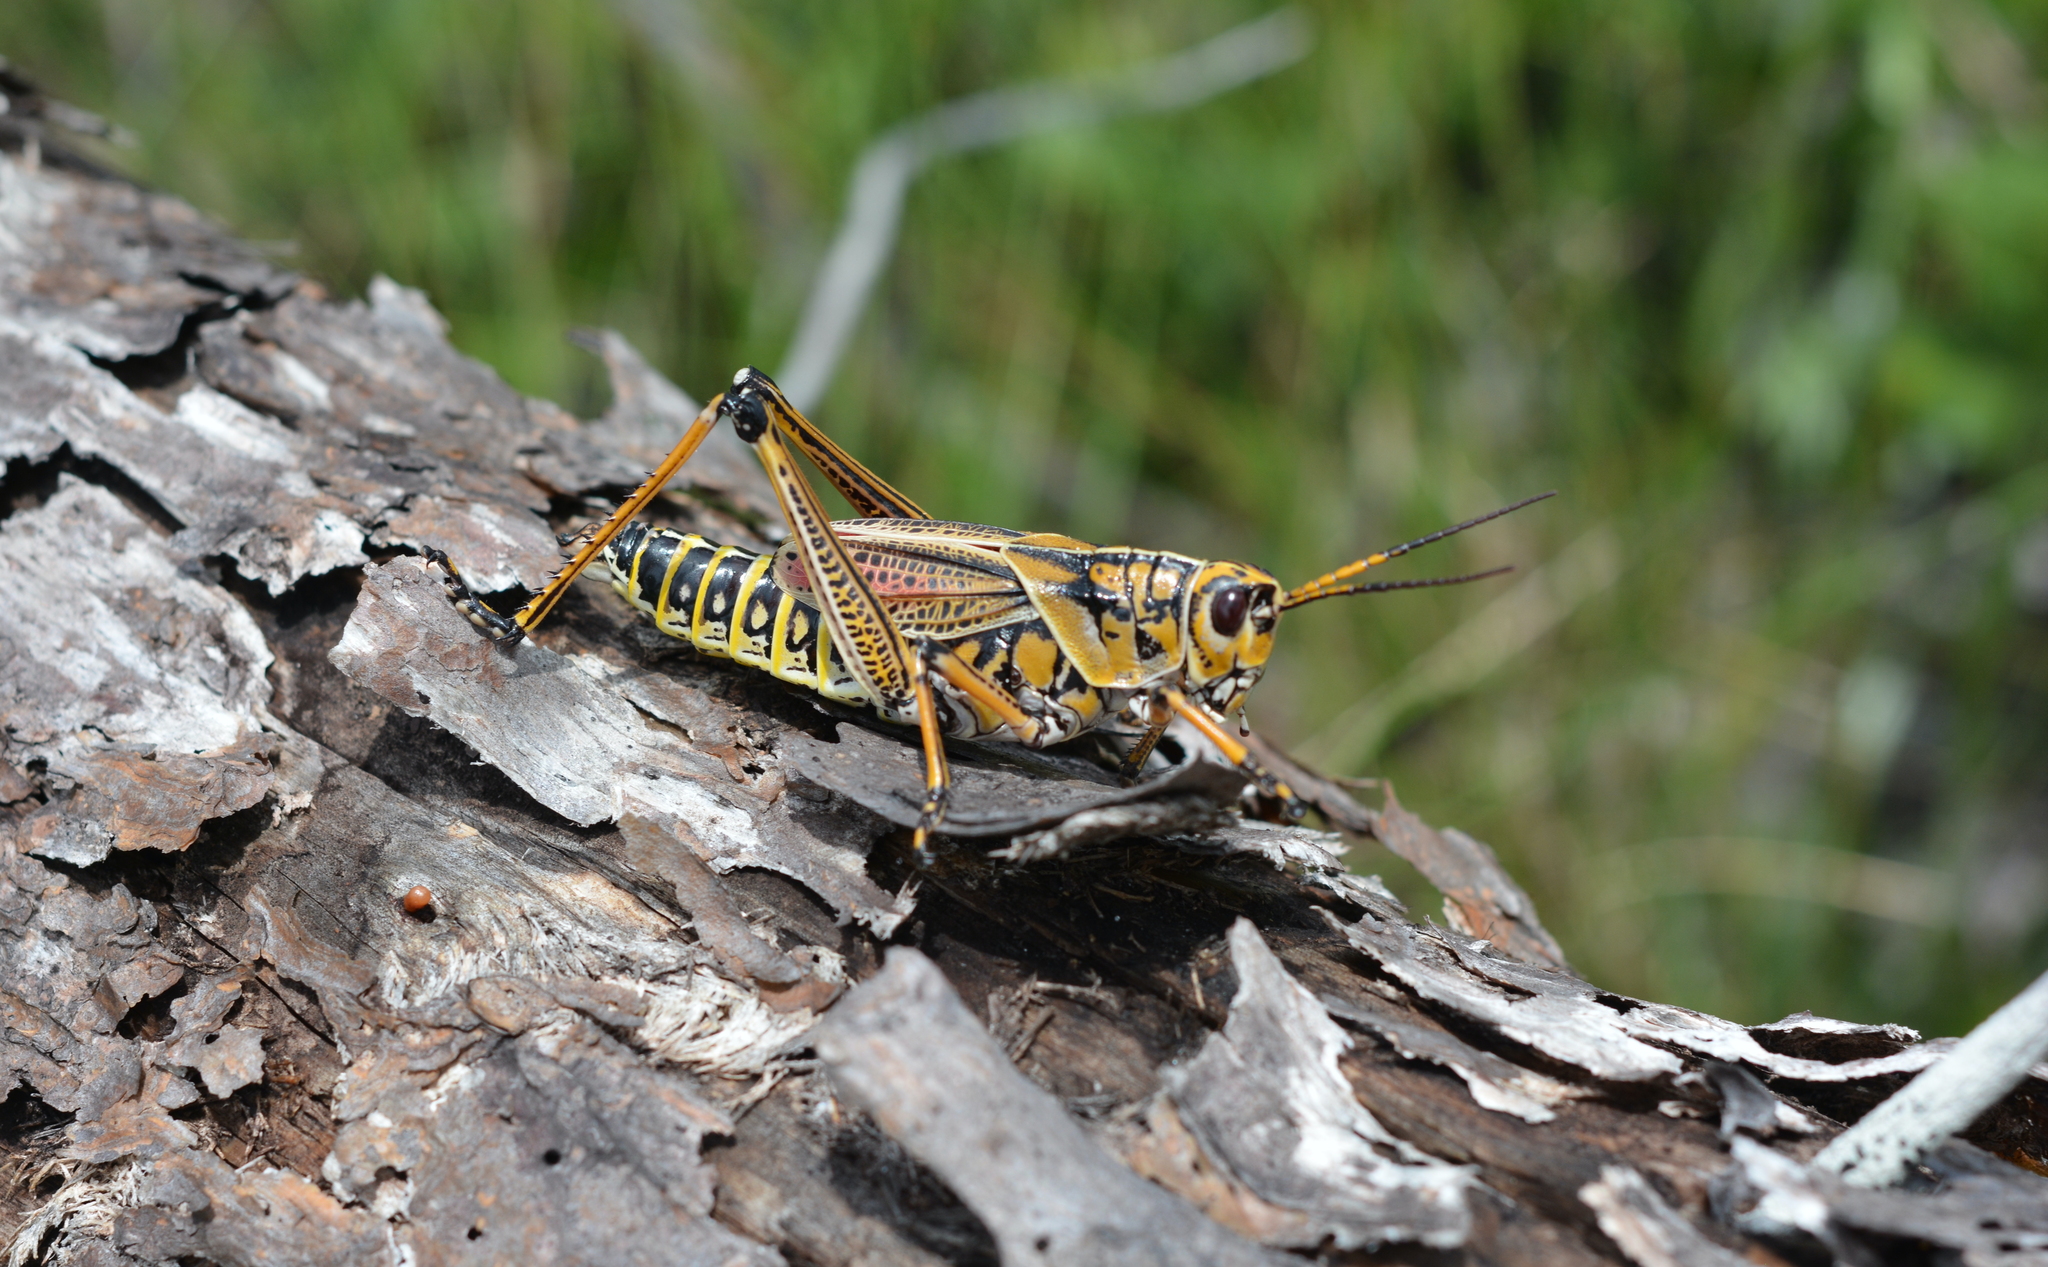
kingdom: Animalia
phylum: Arthropoda
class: Insecta
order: Orthoptera
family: Romaleidae
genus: Romalea
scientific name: Romalea microptera
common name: Eastern lubber grasshopper
